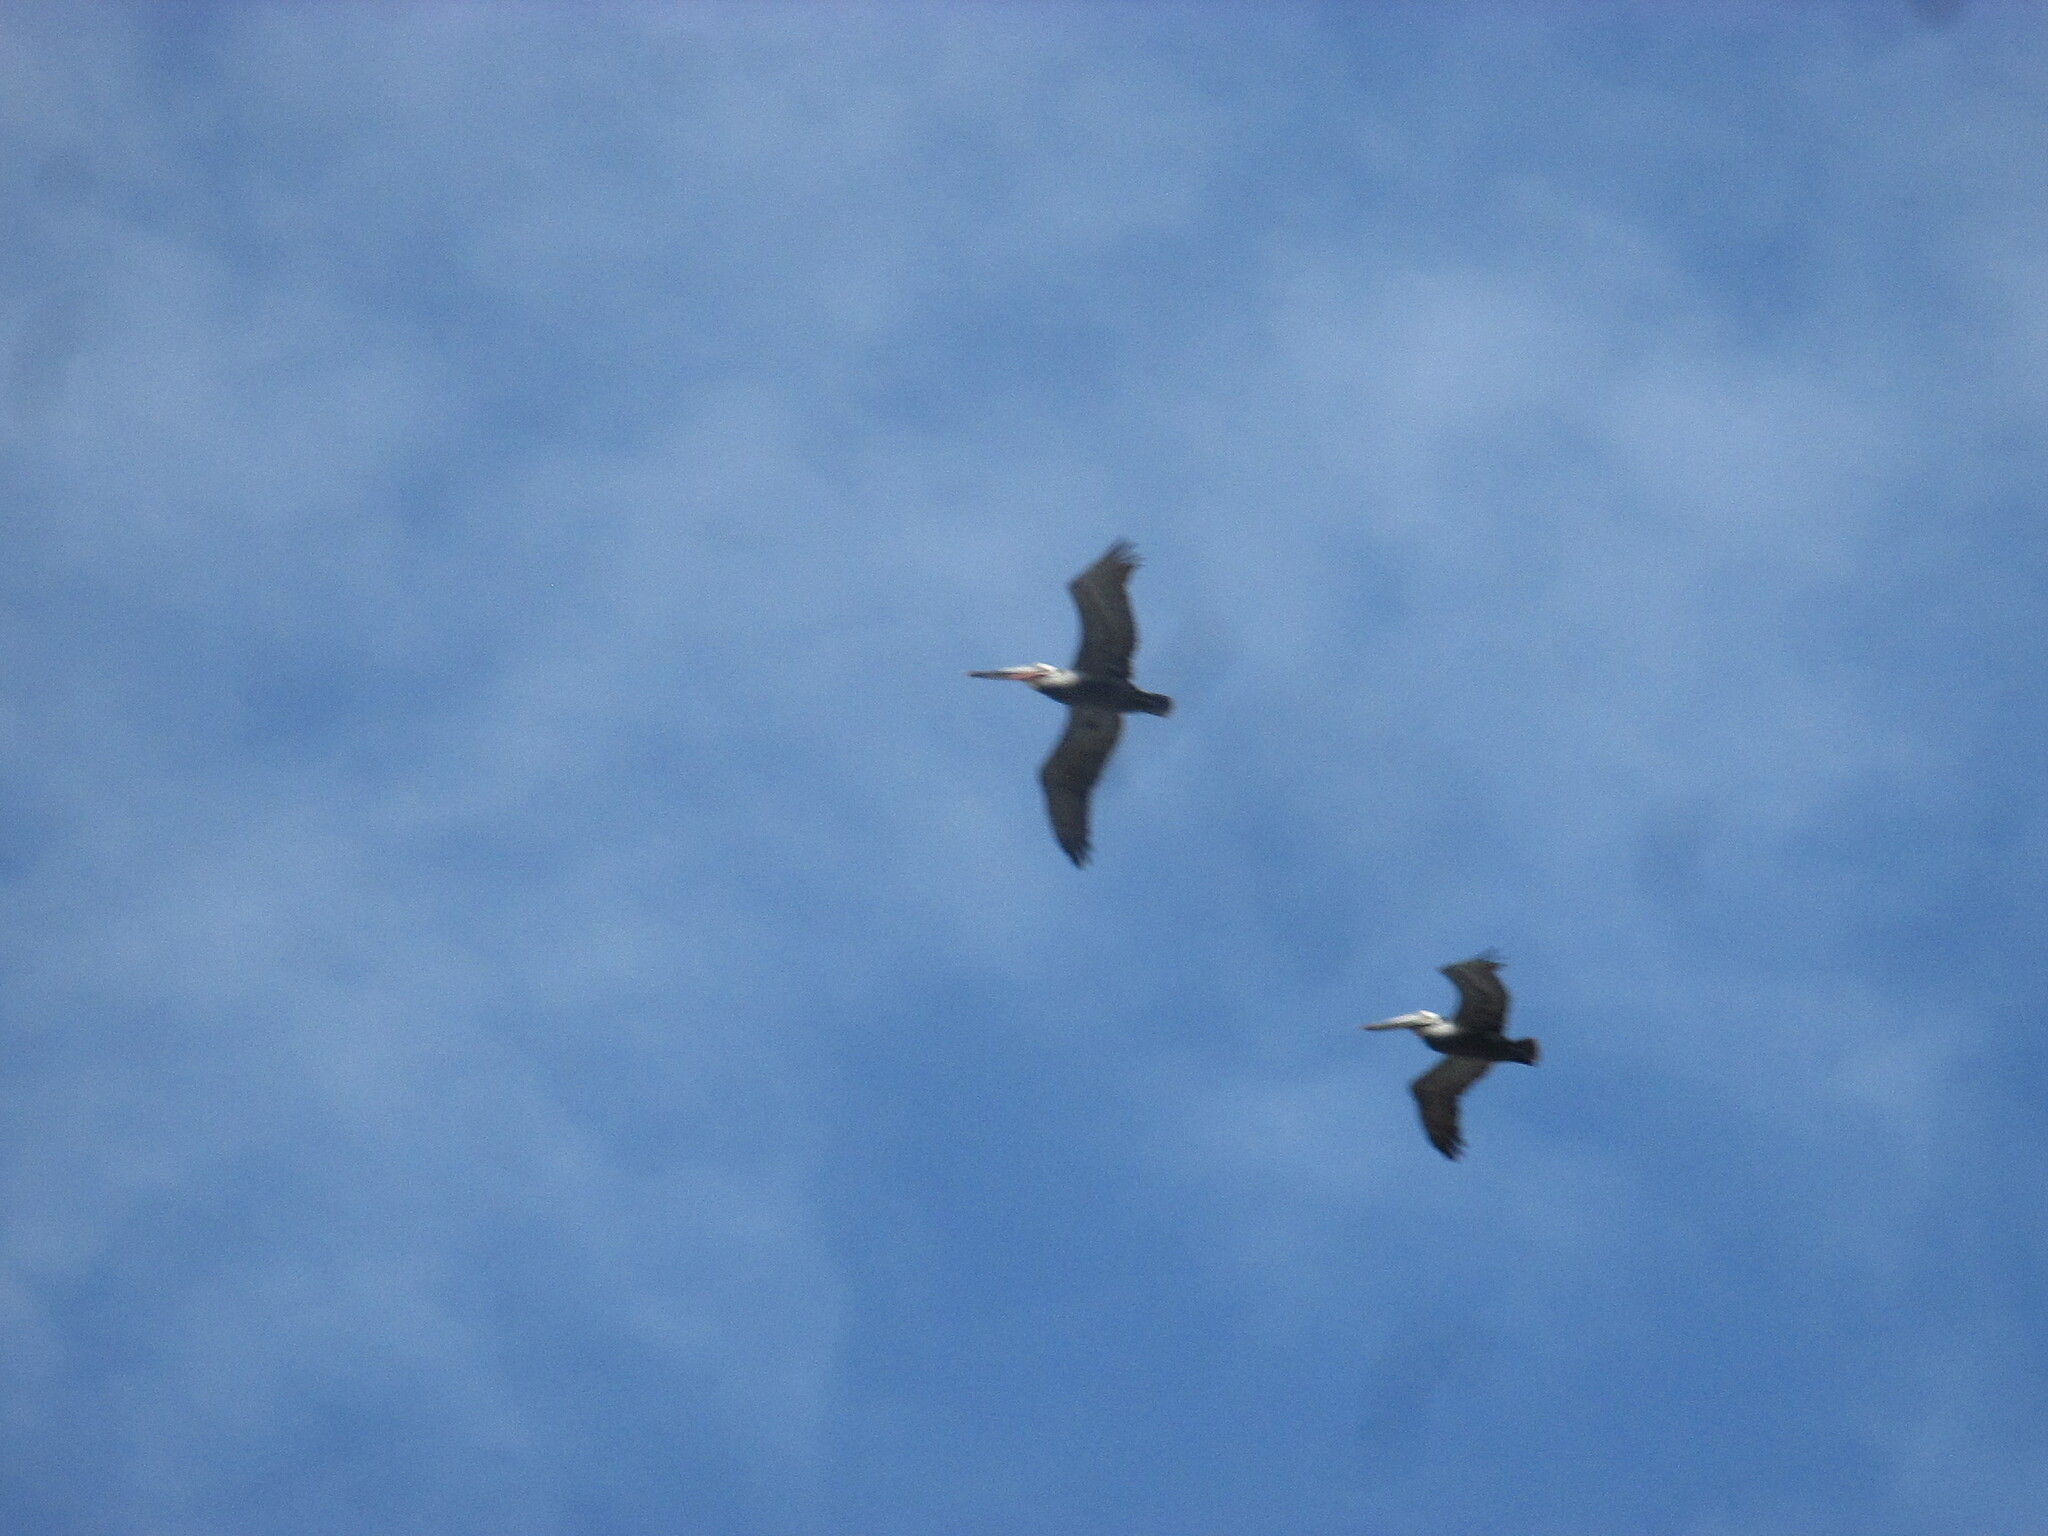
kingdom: Animalia
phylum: Chordata
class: Aves
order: Pelecaniformes
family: Pelecanidae
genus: Pelecanus
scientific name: Pelecanus occidentalis
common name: Brown pelican
